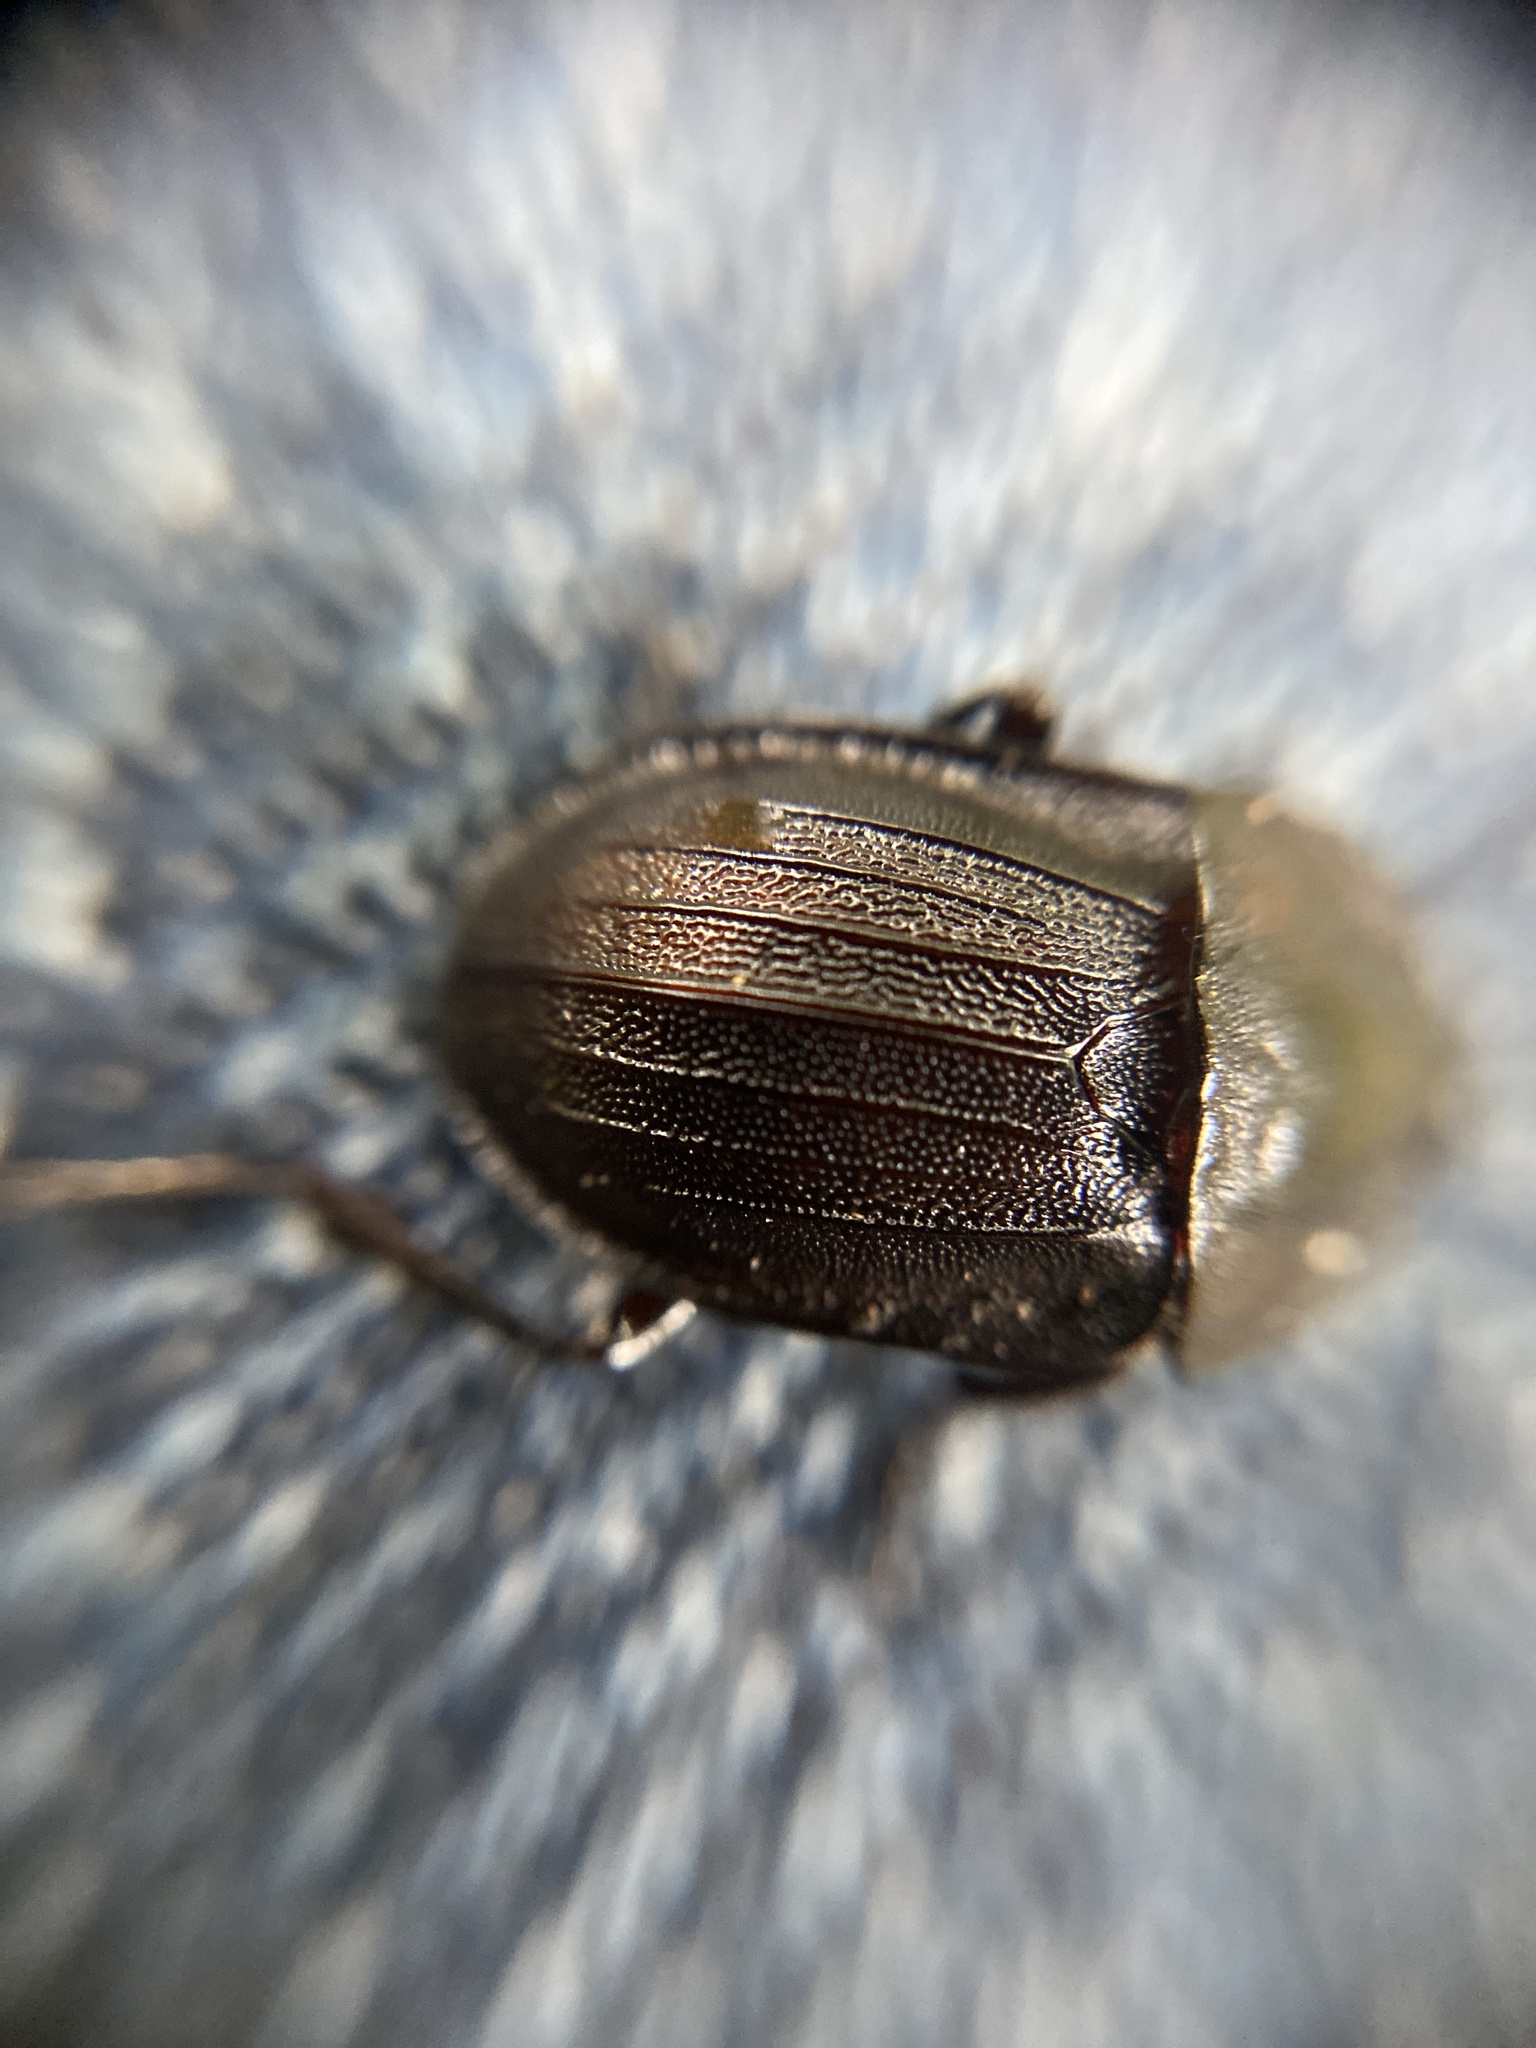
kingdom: Animalia
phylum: Arthropoda
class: Insecta
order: Coleoptera
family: Staphylinidae
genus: Silpha
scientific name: Silpha atrata
